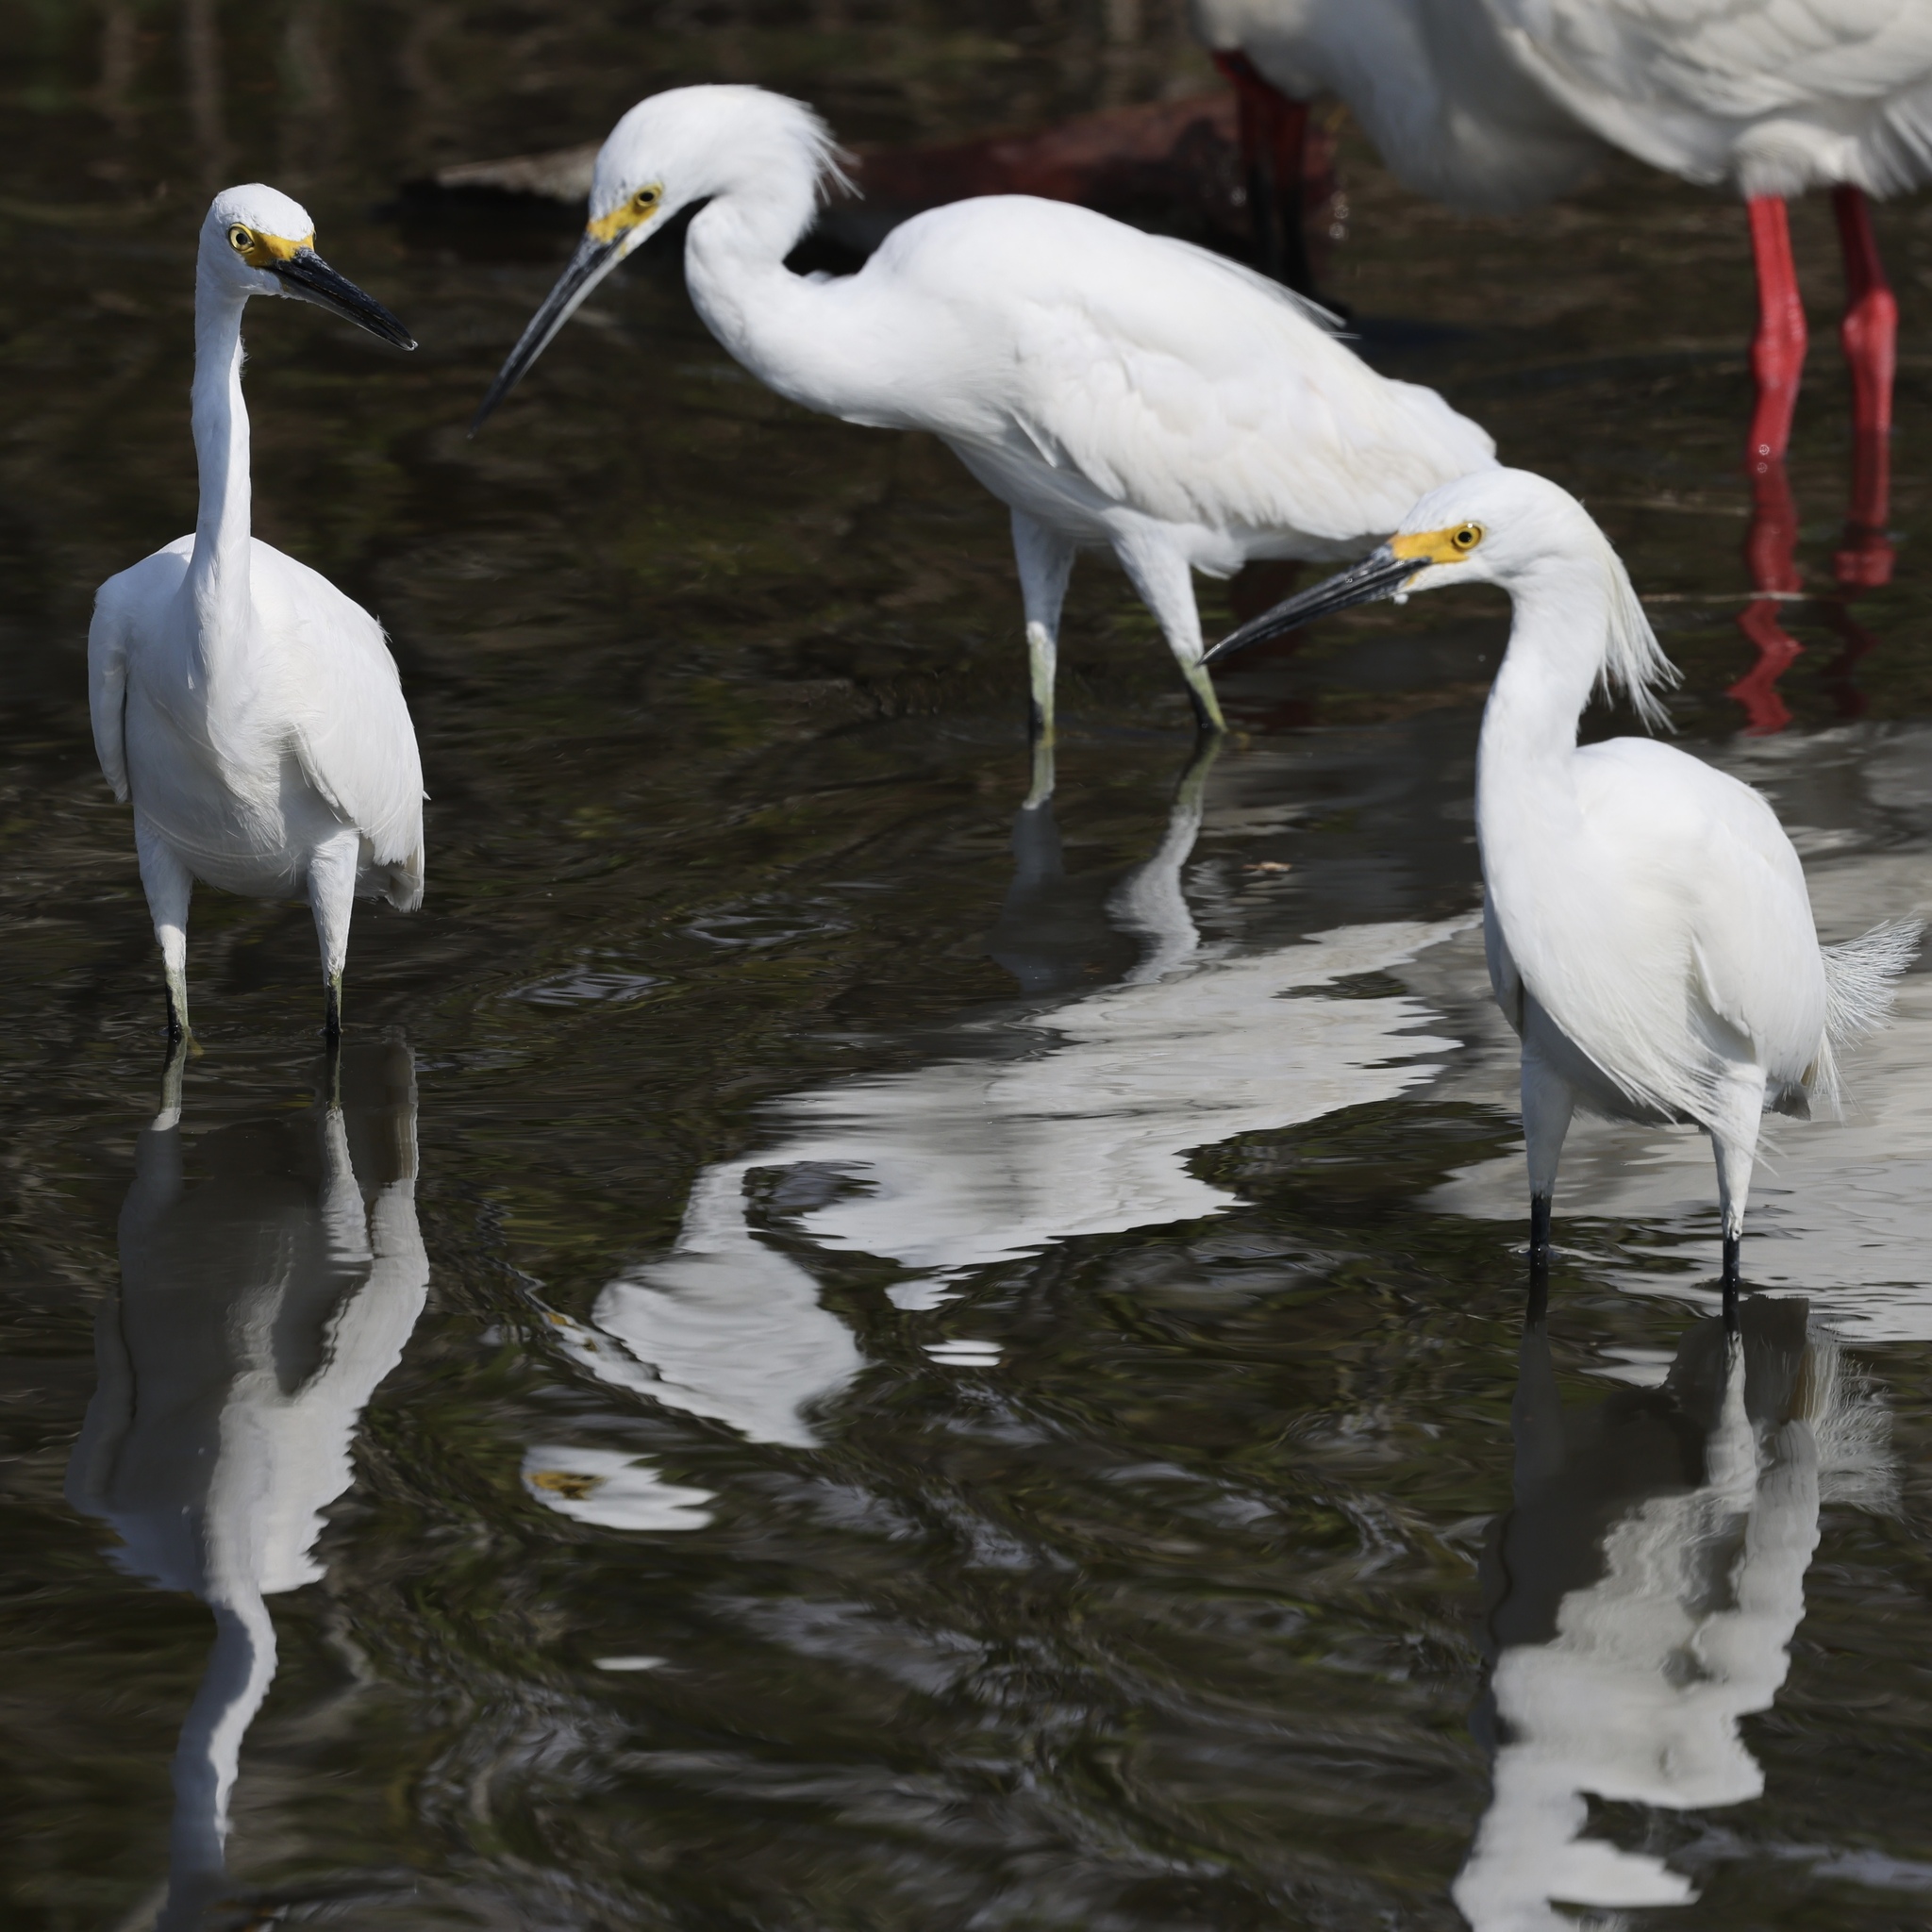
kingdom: Animalia
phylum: Chordata
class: Aves
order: Pelecaniformes
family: Ardeidae
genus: Egretta
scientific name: Egretta thula
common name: Snowy egret
